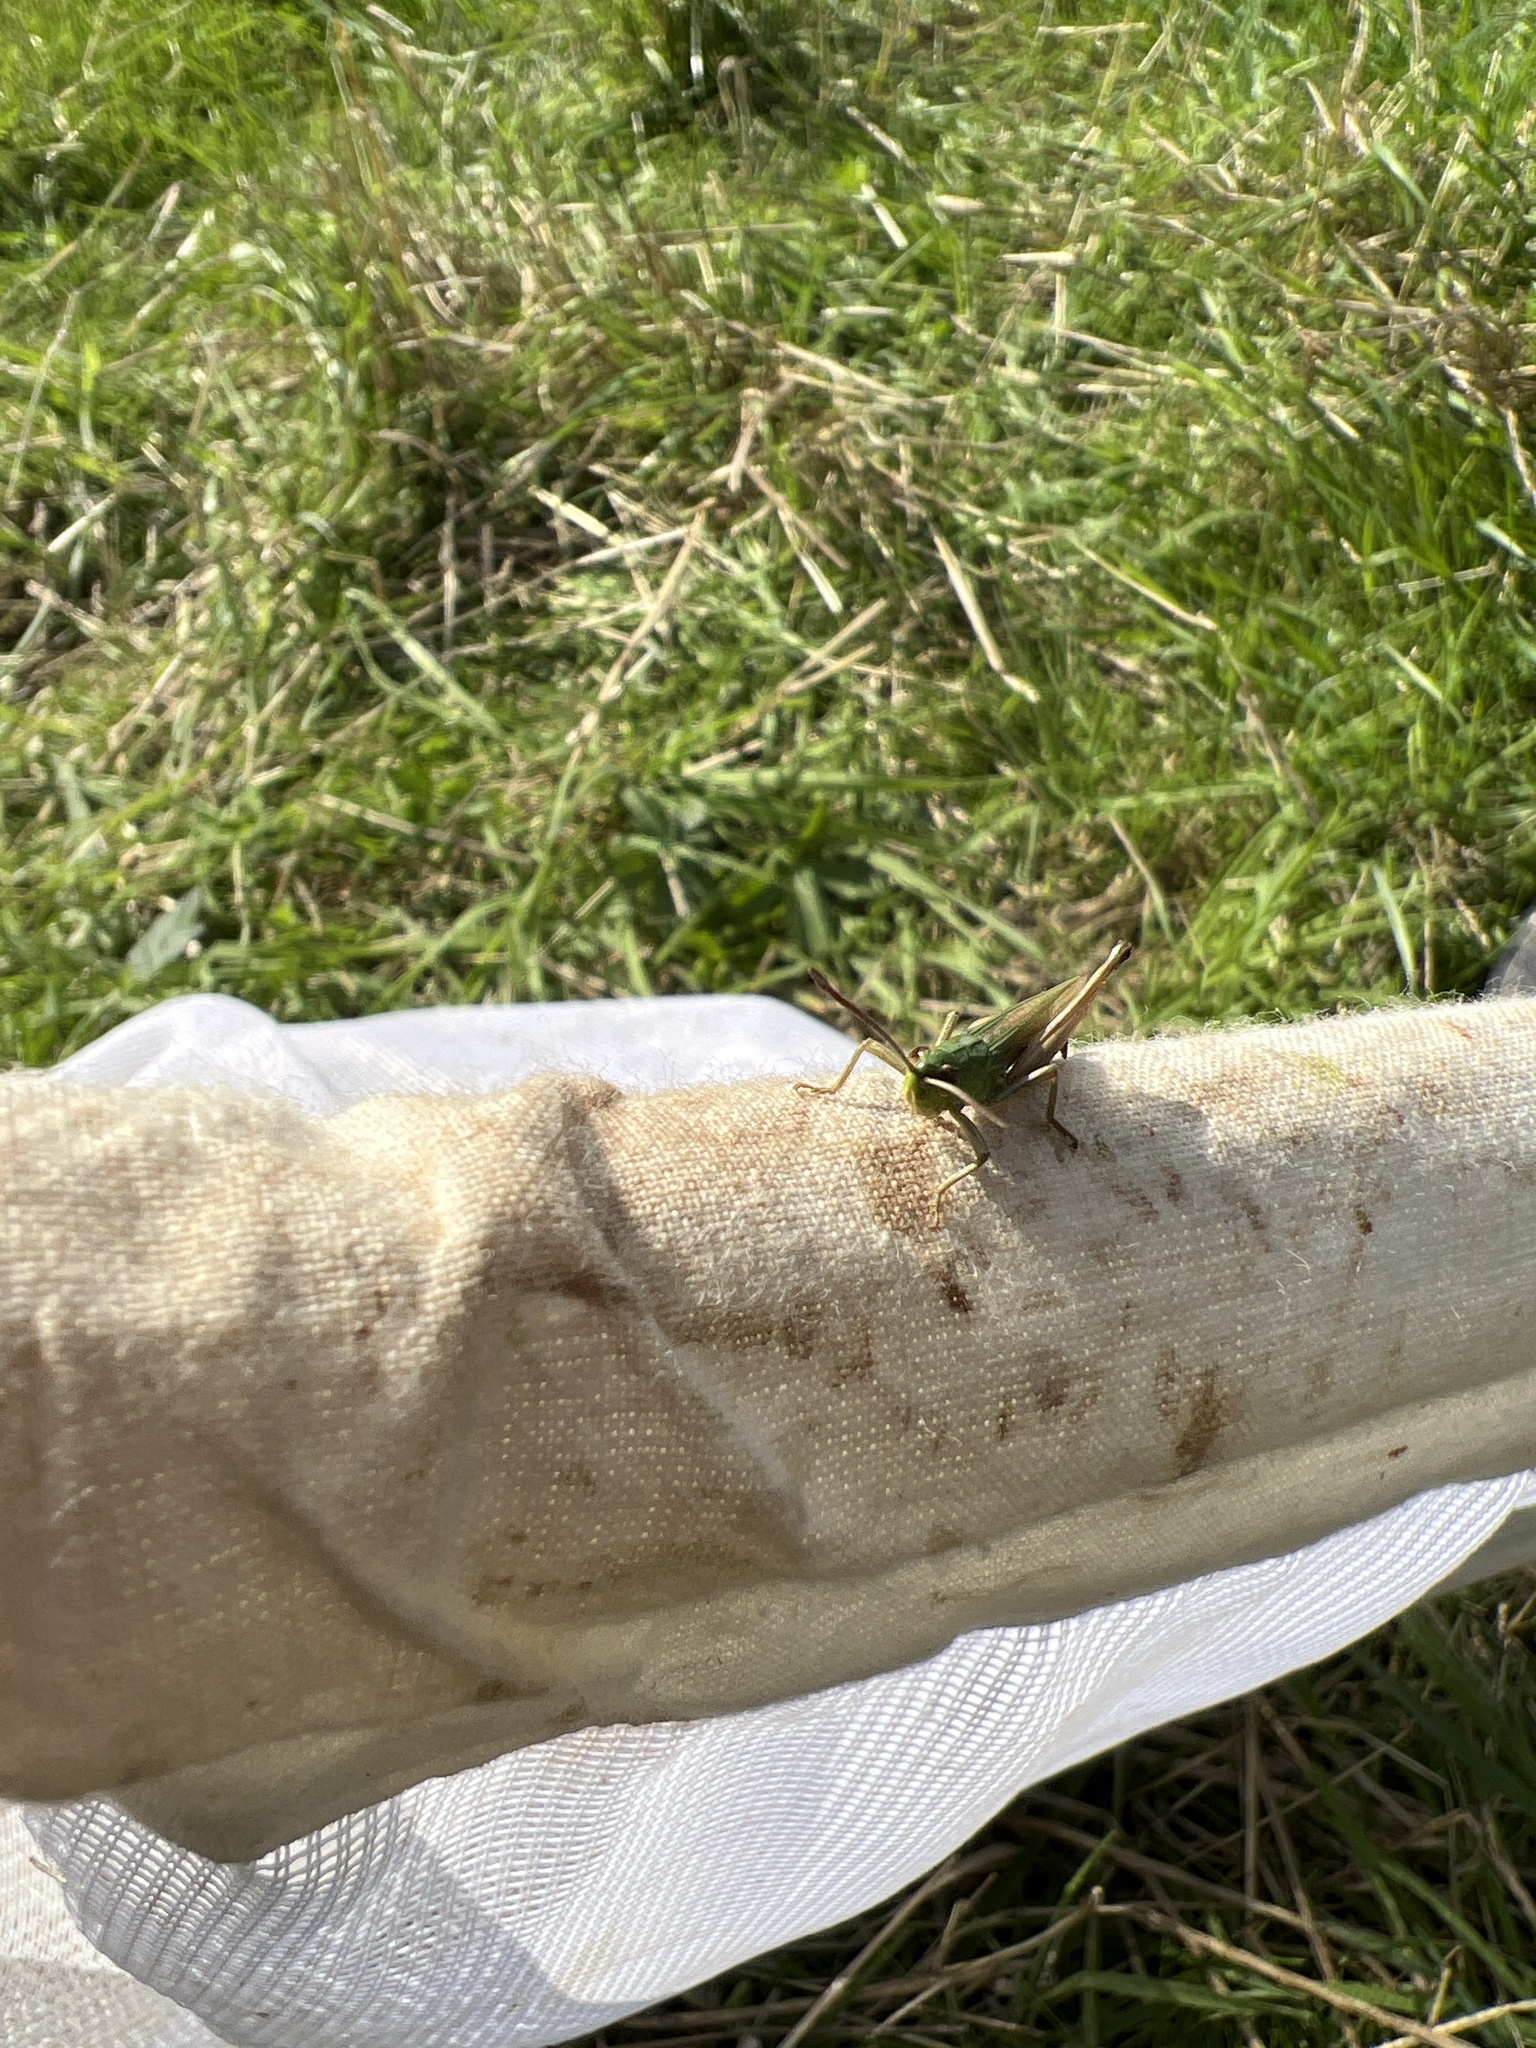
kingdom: Animalia
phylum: Arthropoda
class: Insecta
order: Orthoptera
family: Acrididae
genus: Pseudochorthippus
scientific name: Pseudochorthippus parallelus
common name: Meadow grasshopper
